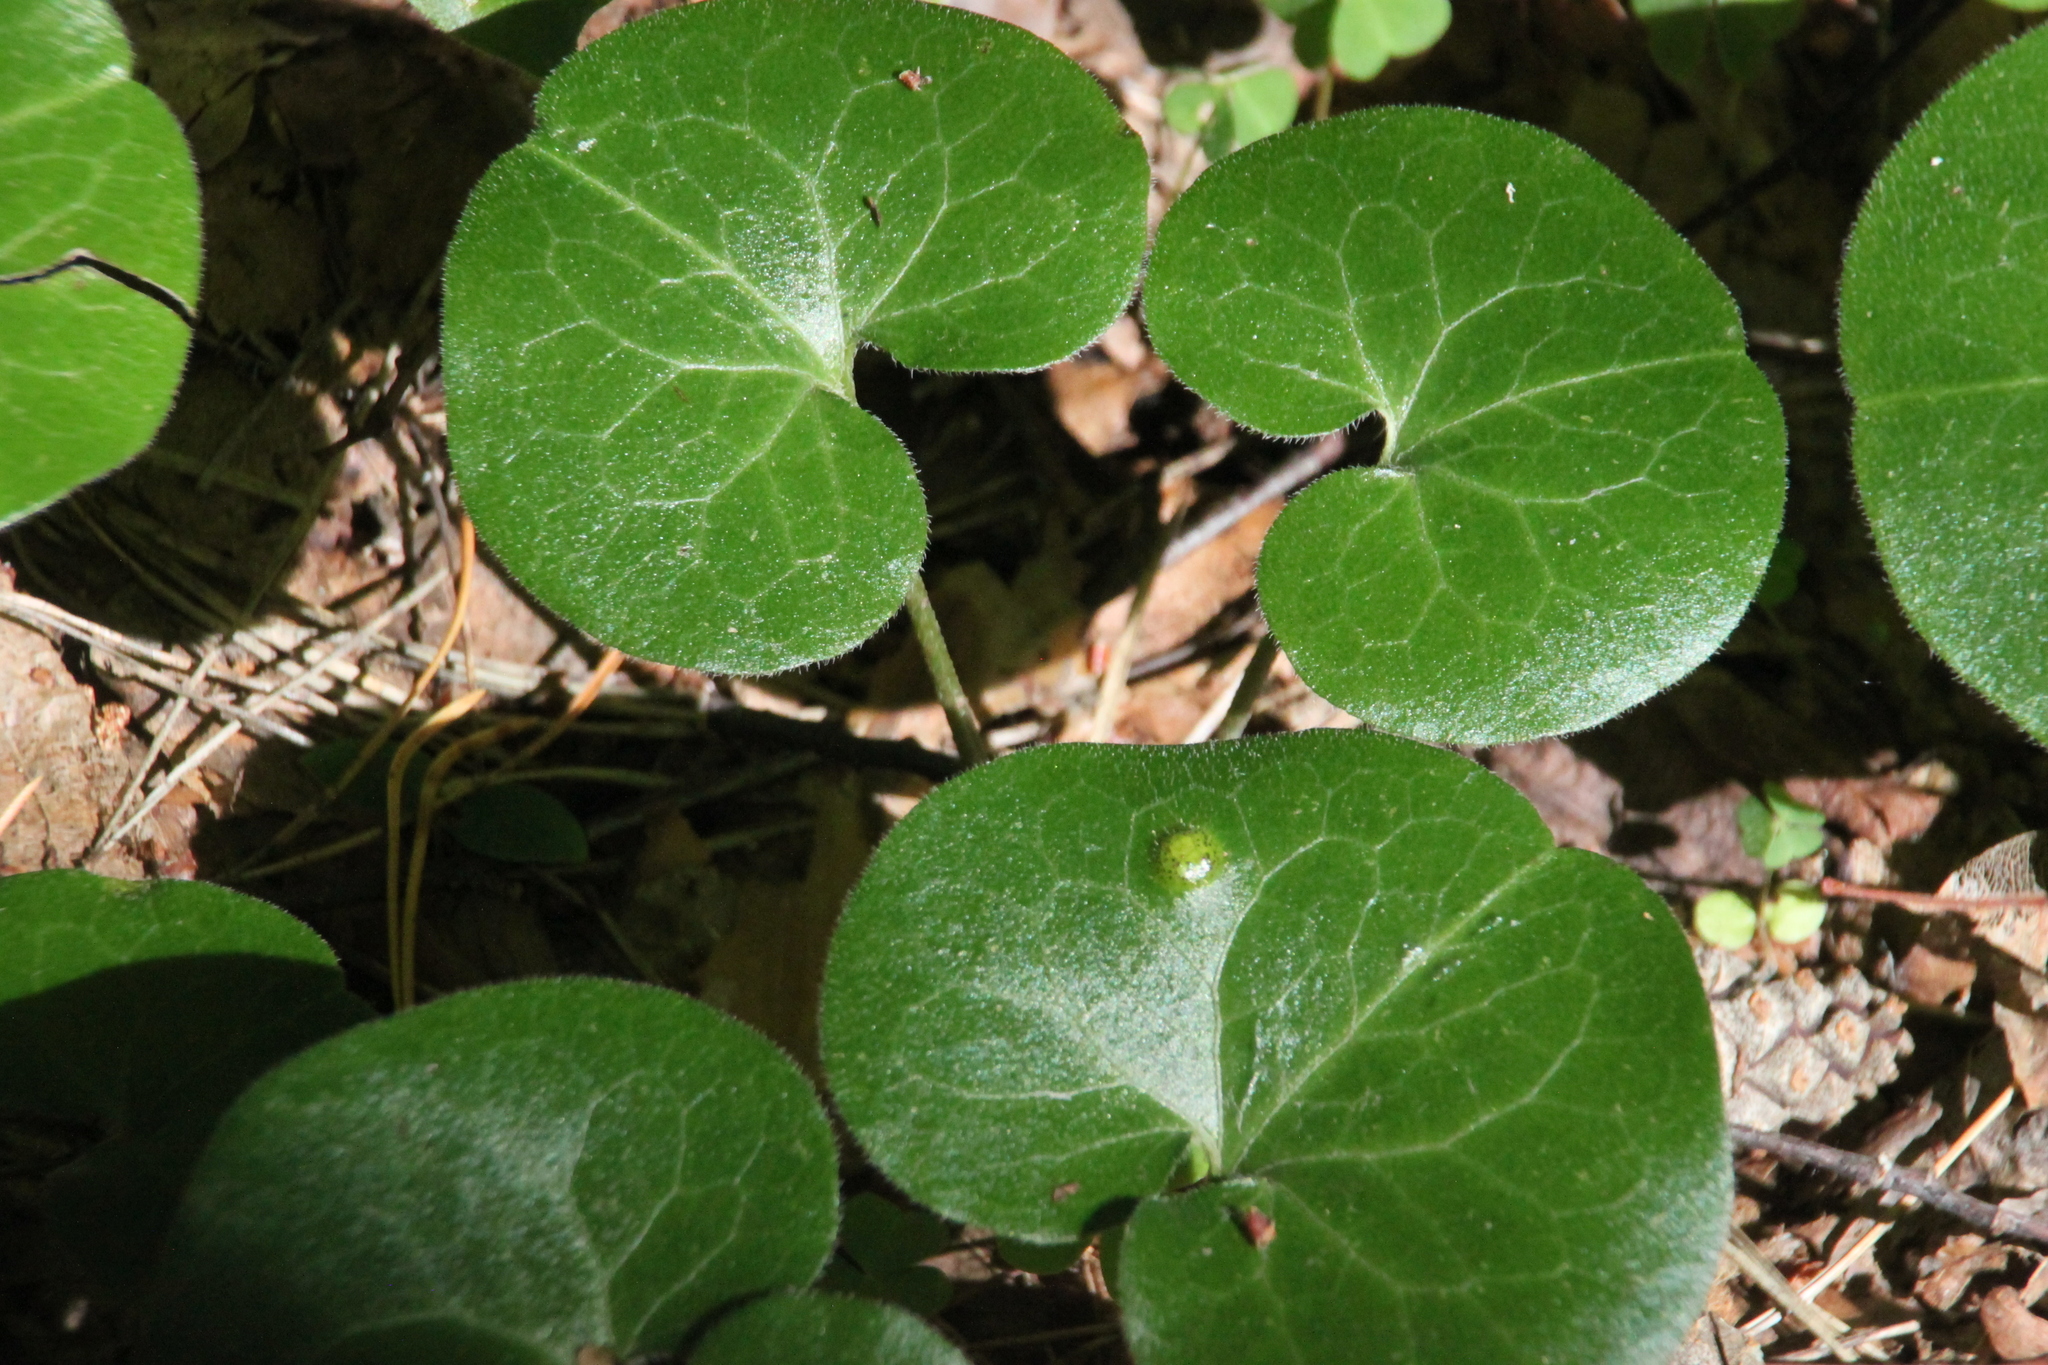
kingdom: Plantae
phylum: Tracheophyta
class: Magnoliopsida
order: Piperales
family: Aristolochiaceae
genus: Asarum
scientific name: Asarum europaeum
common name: Asarabacca
